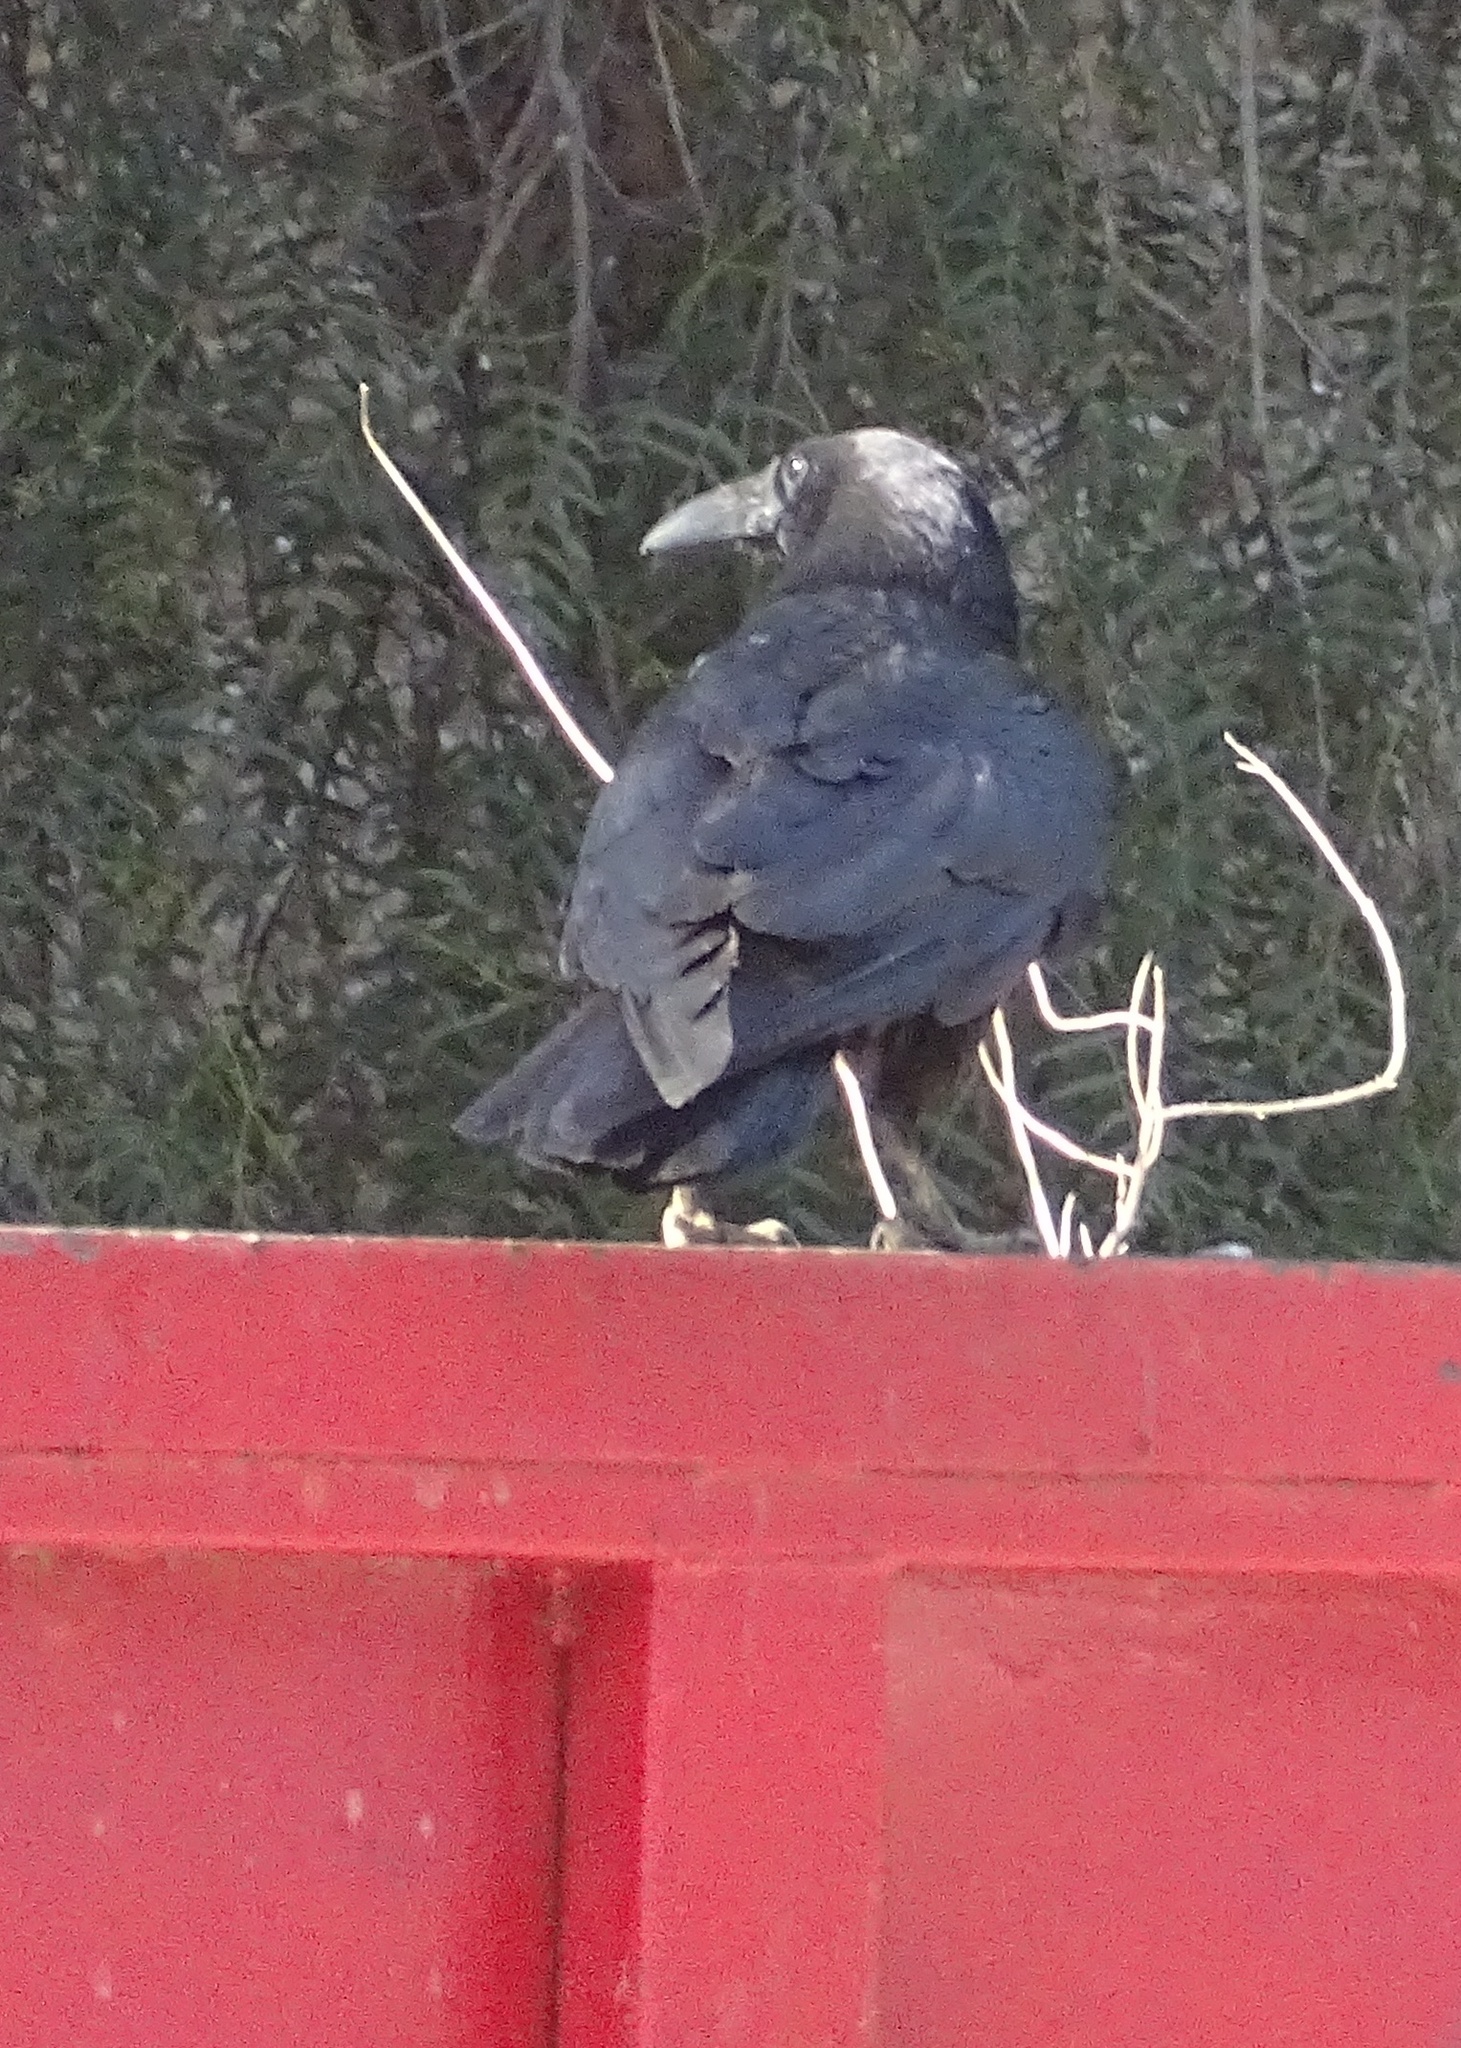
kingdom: Animalia
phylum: Chordata
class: Aves
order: Passeriformes
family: Corvidae
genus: Corvus
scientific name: Corvus corax
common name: Common raven
